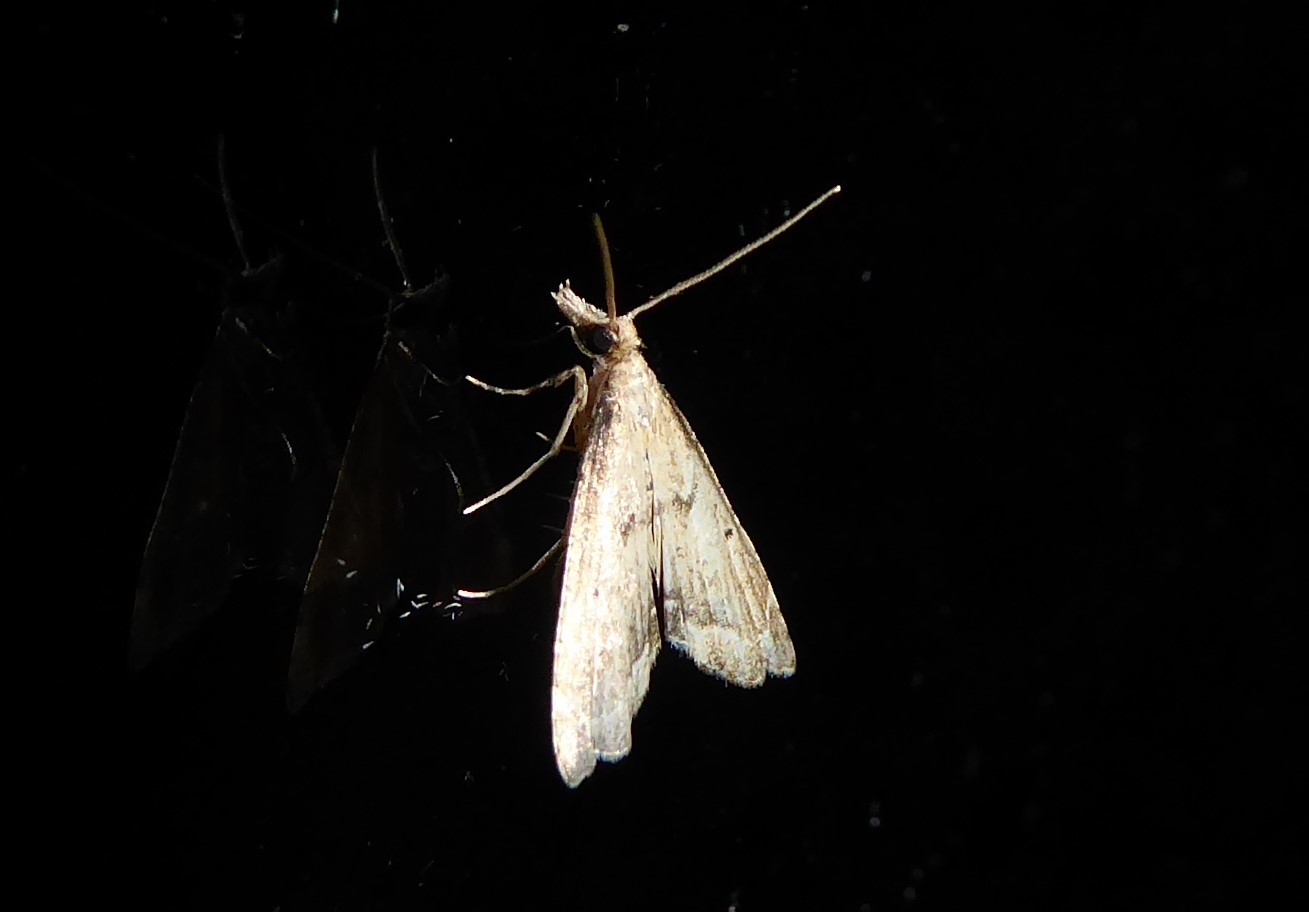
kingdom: Animalia
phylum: Arthropoda
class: Insecta
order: Lepidoptera
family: Crambidae
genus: Diplopseustis
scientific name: Diplopseustis perieresalis
